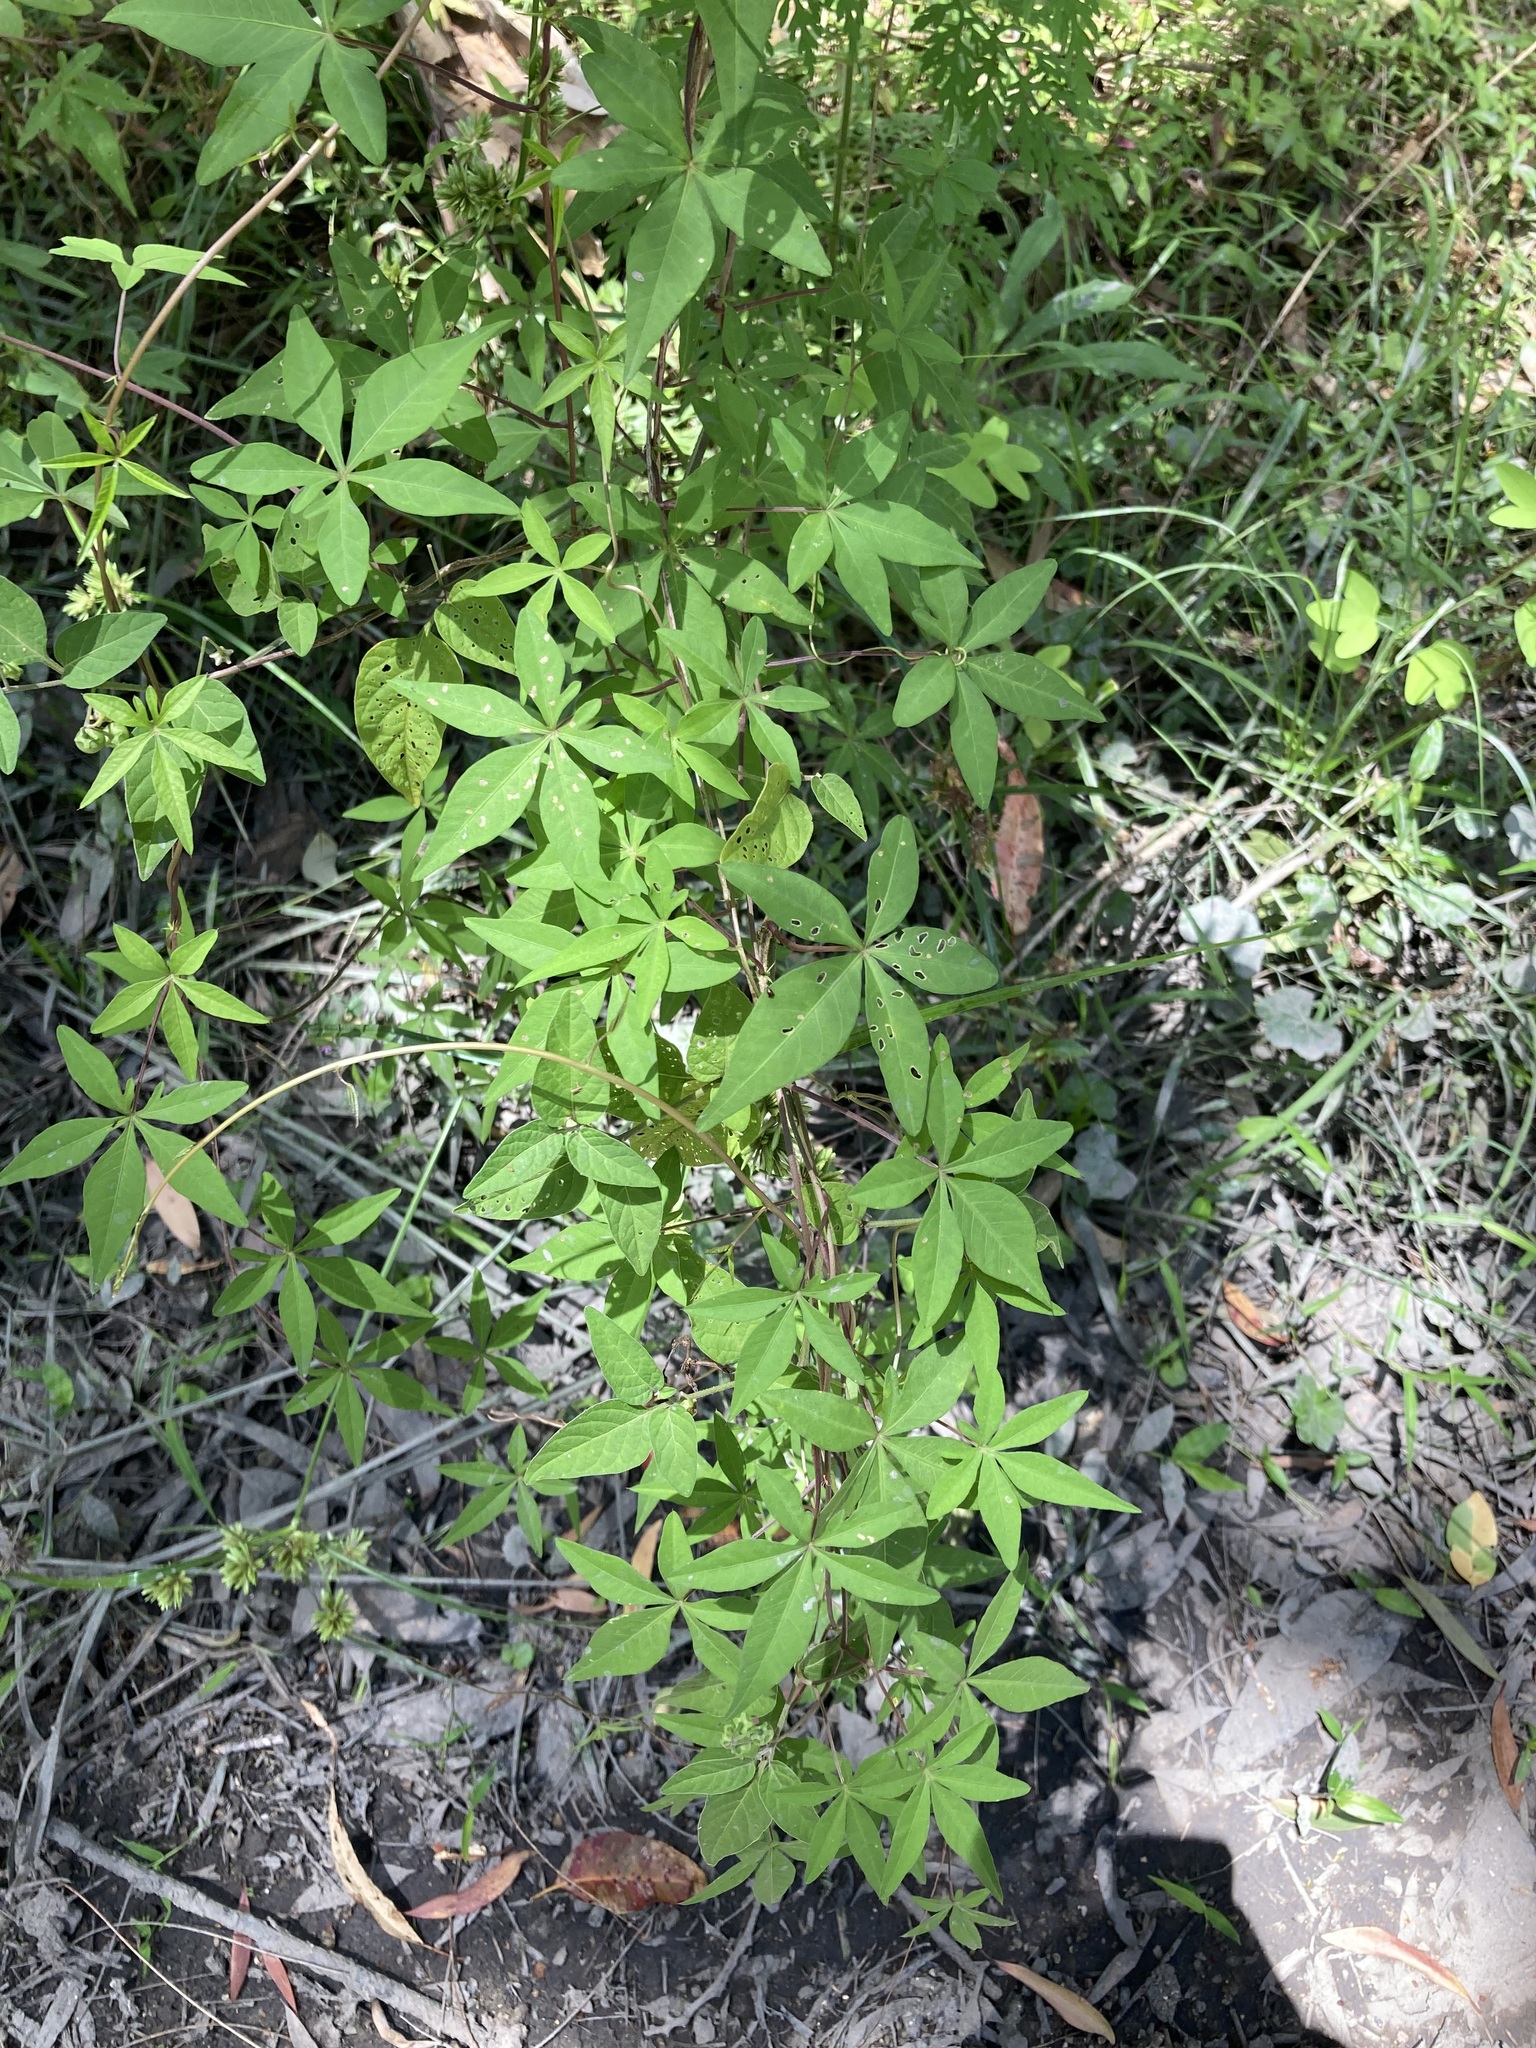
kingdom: Plantae
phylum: Tracheophyta
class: Magnoliopsida
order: Solanales
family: Convolvulaceae
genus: Ipomoea
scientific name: Ipomoea cairica
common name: Mile a minute vine
